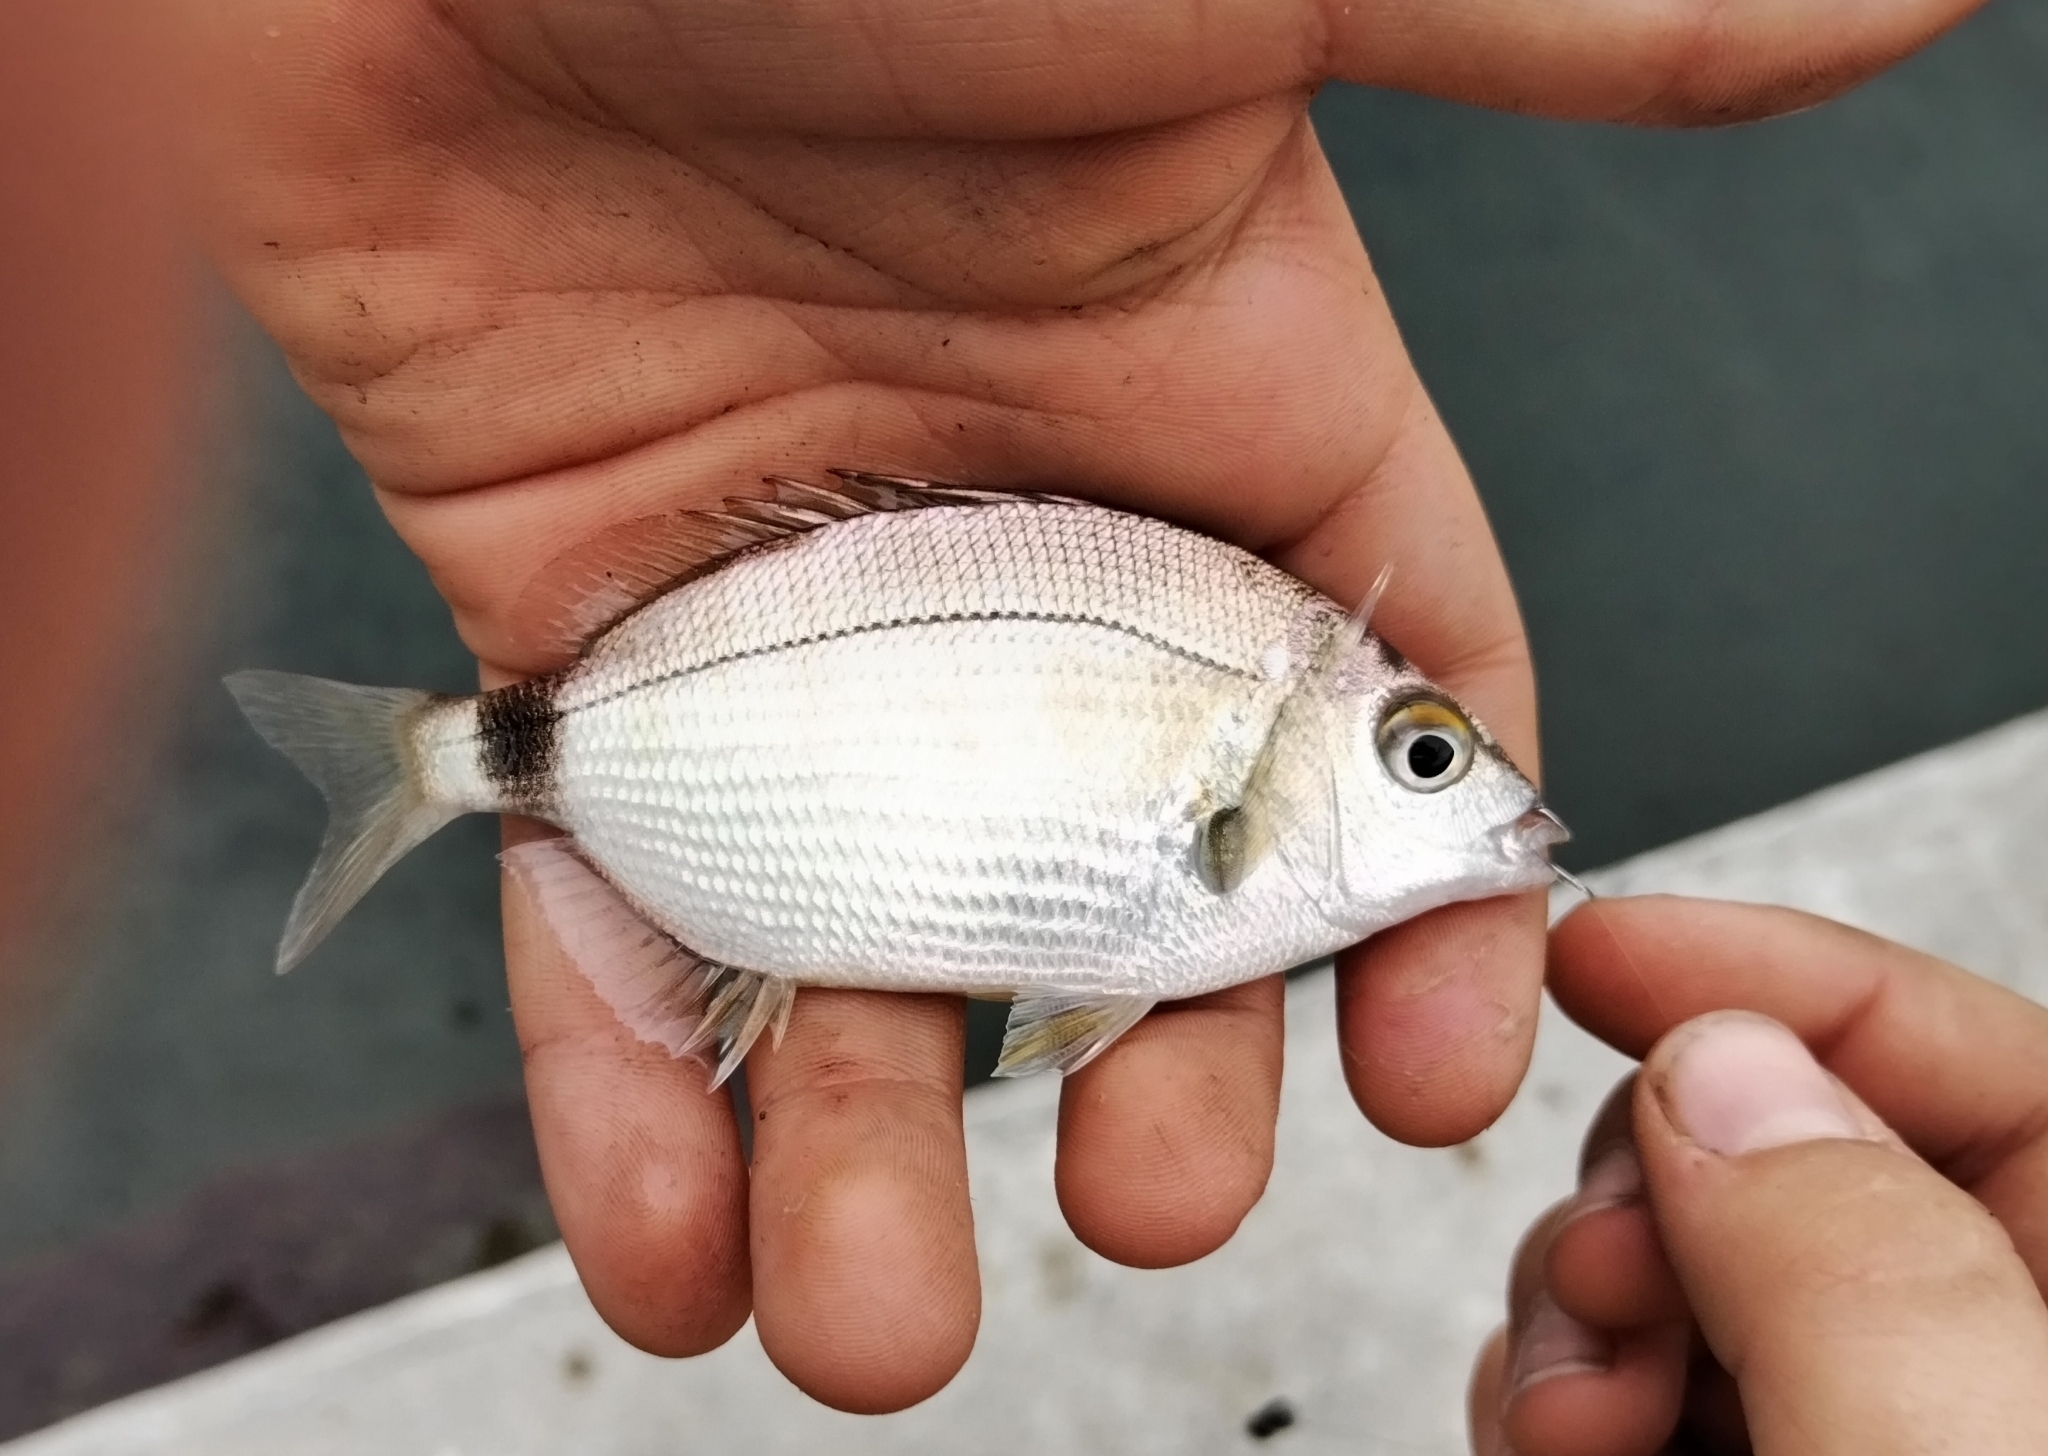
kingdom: Animalia
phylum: Chordata
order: Perciformes
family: Sparidae
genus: Diplodus
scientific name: Diplodus annularis
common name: Annular seabream
